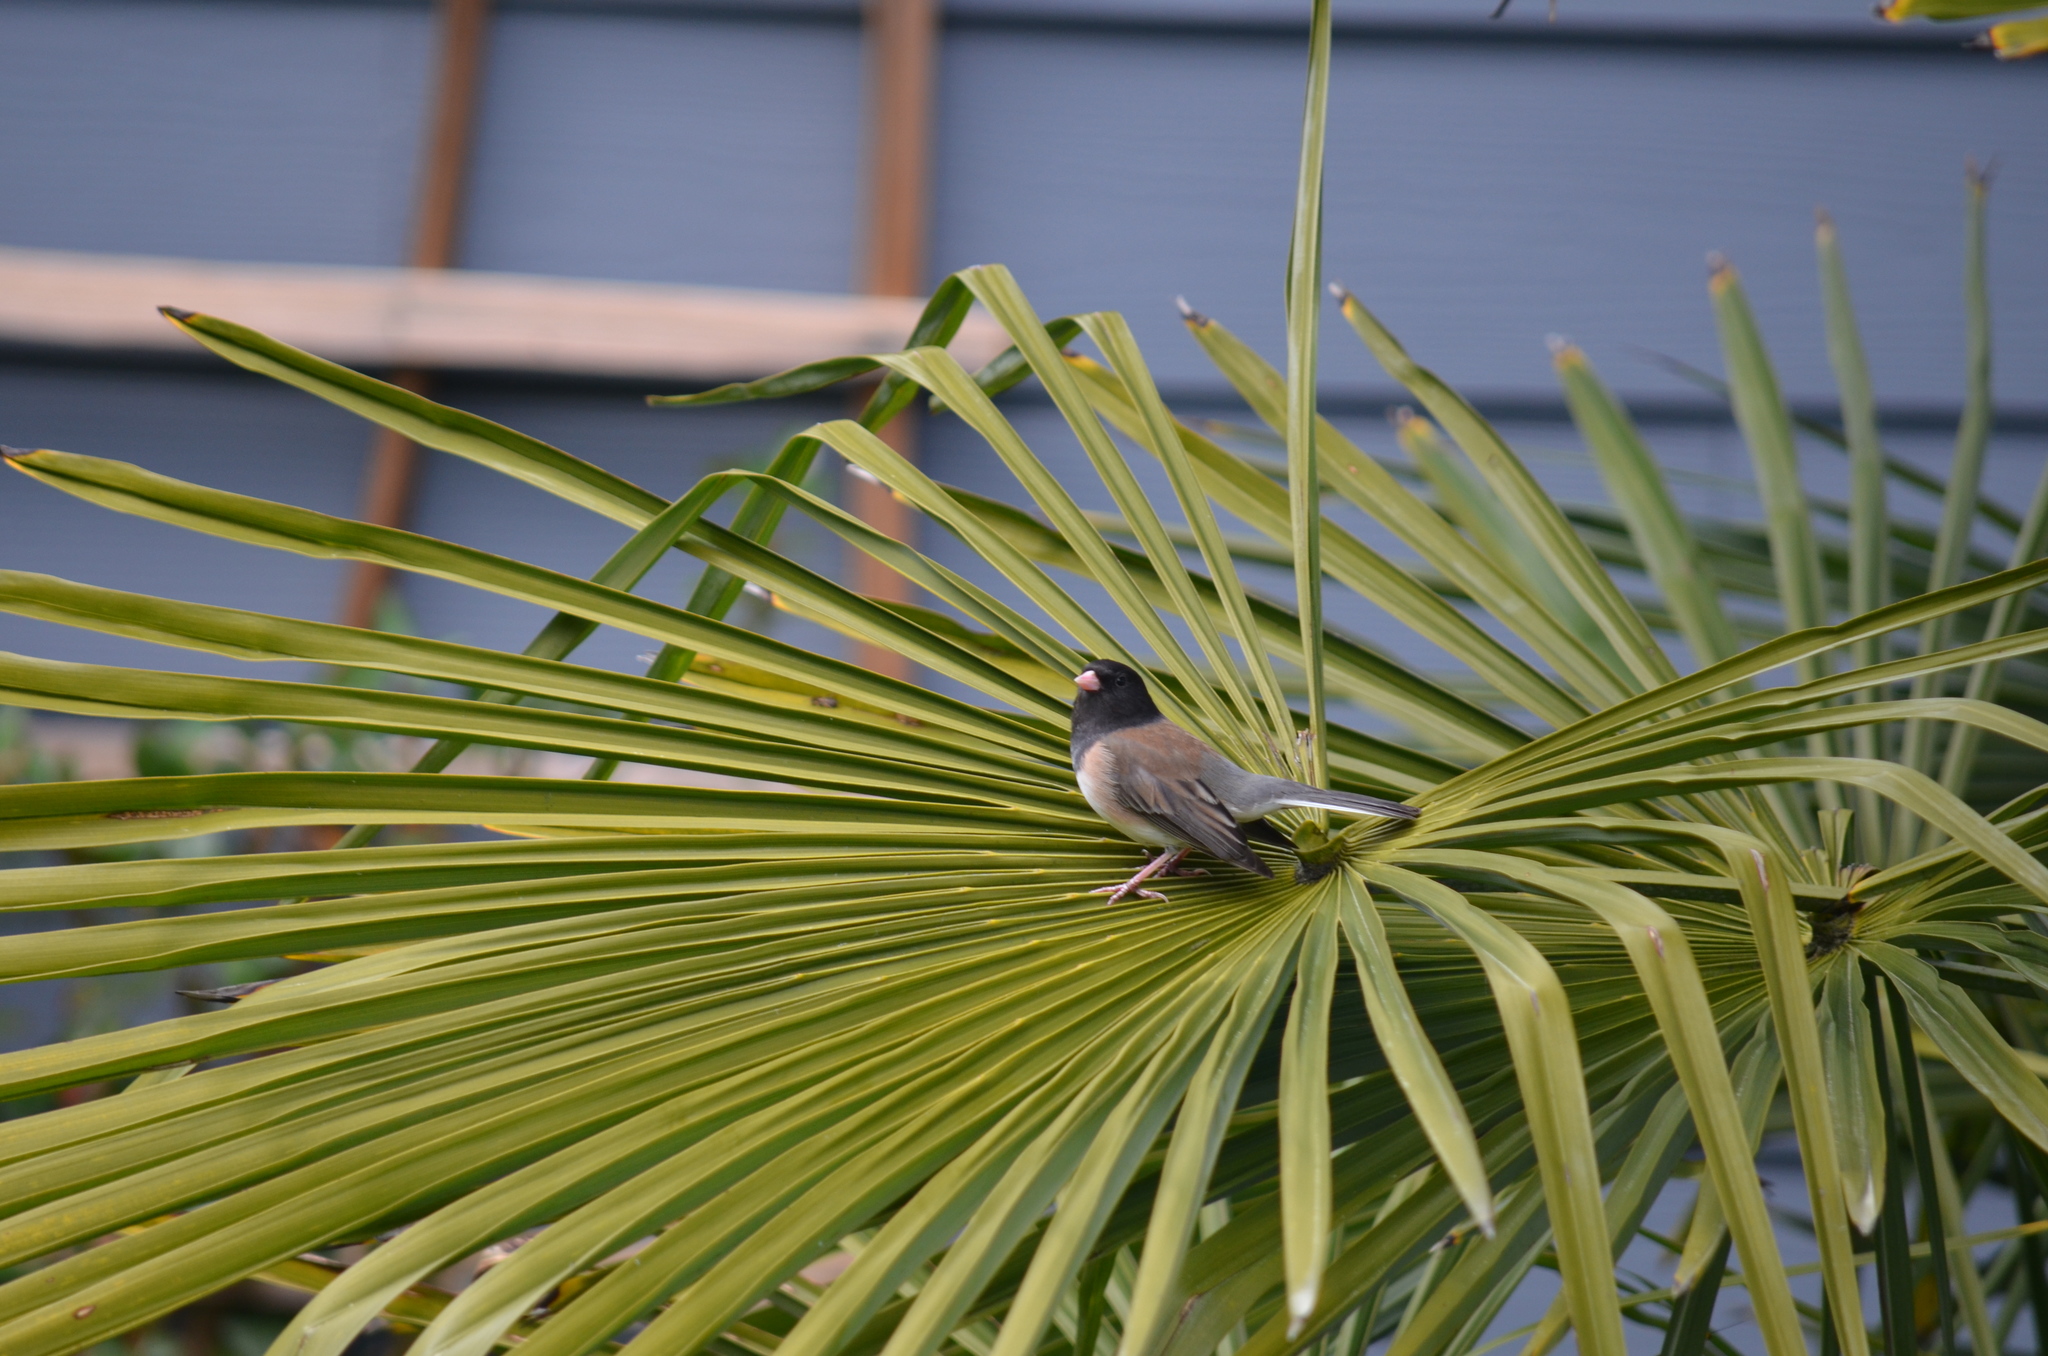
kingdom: Animalia
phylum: Chordata
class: Aves
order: Passeriformes
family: Passerellidae
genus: Junco
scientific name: Junco hyemalis
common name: Dark-eyed junco
